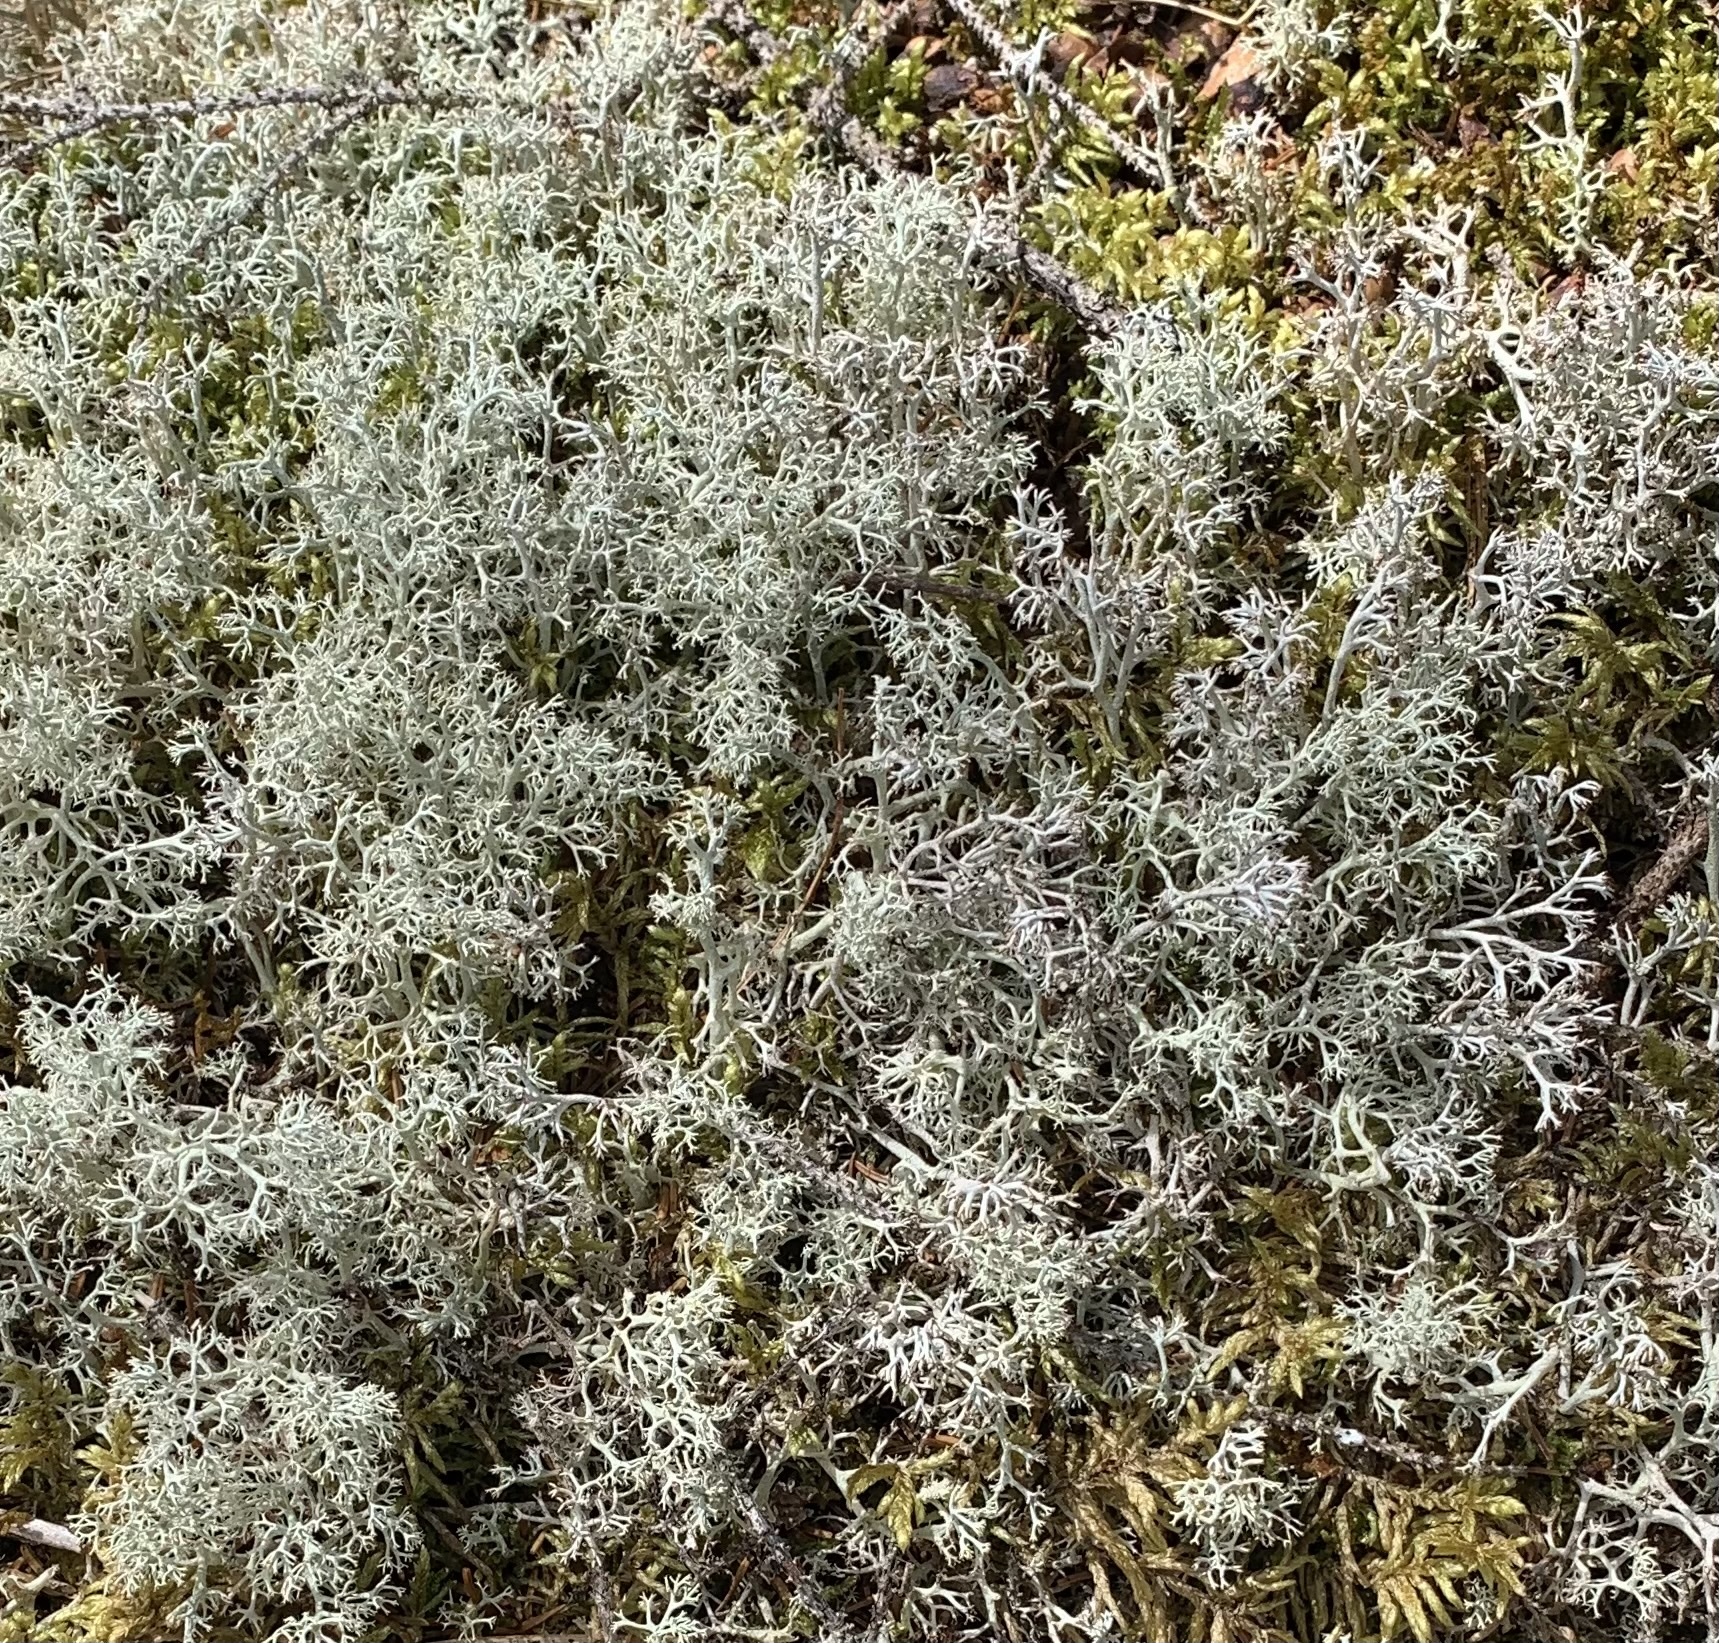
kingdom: Fungi
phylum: Ascomycota
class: Lecanoromycetes
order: Lecanorales
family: Cladoniaceae
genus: Cladonia
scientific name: Cladonia rangiferina
